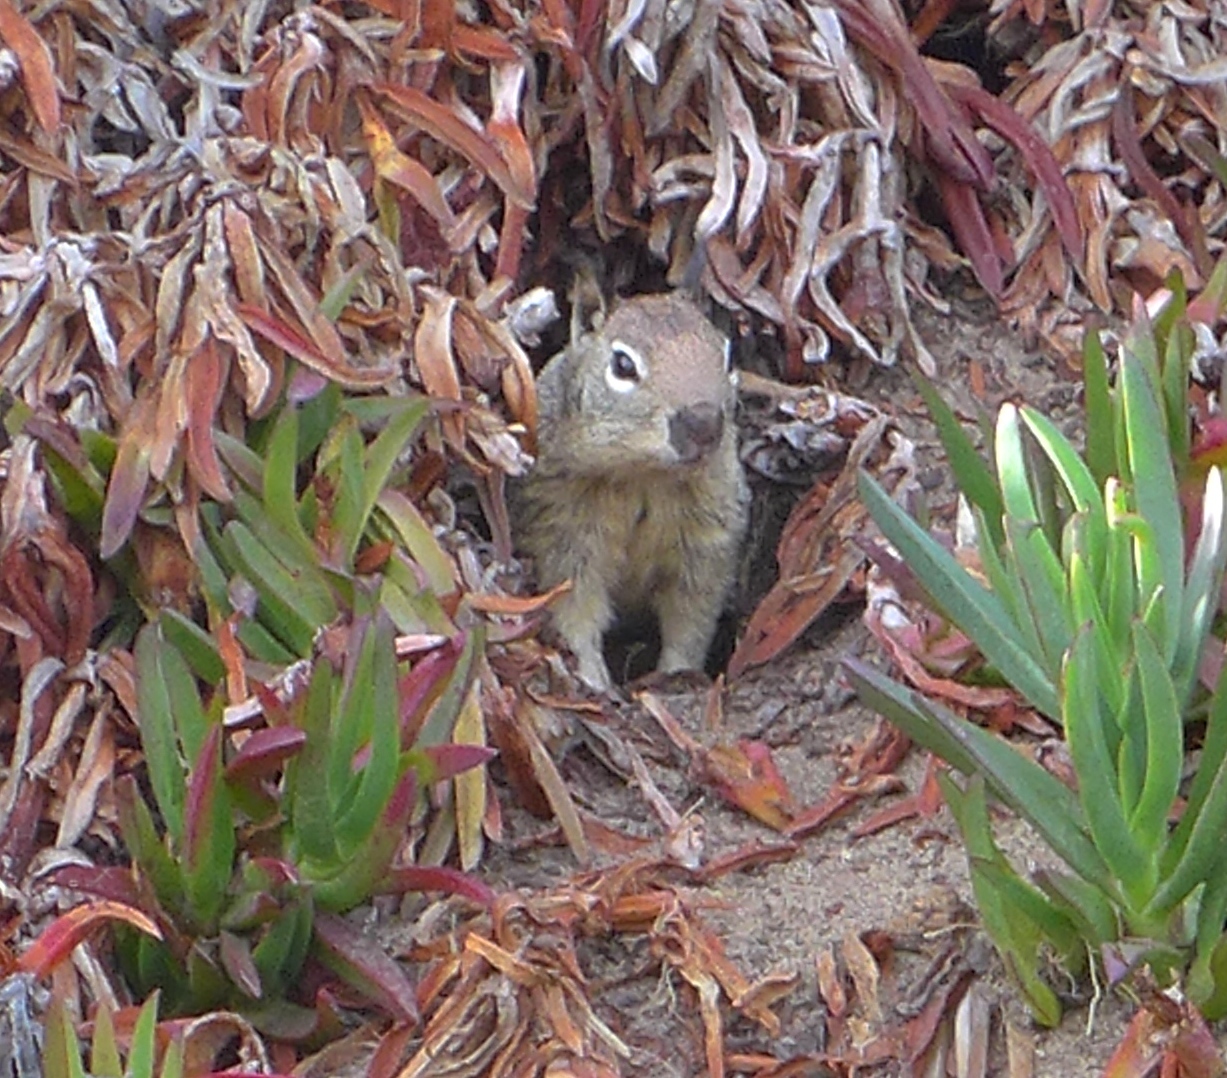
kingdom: Animalia
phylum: Chordata
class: Mammalia
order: Rodentia
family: Sciuridae
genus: Otospermophilus
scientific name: Otospermophilus beecheyi
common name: California ground squirrel
